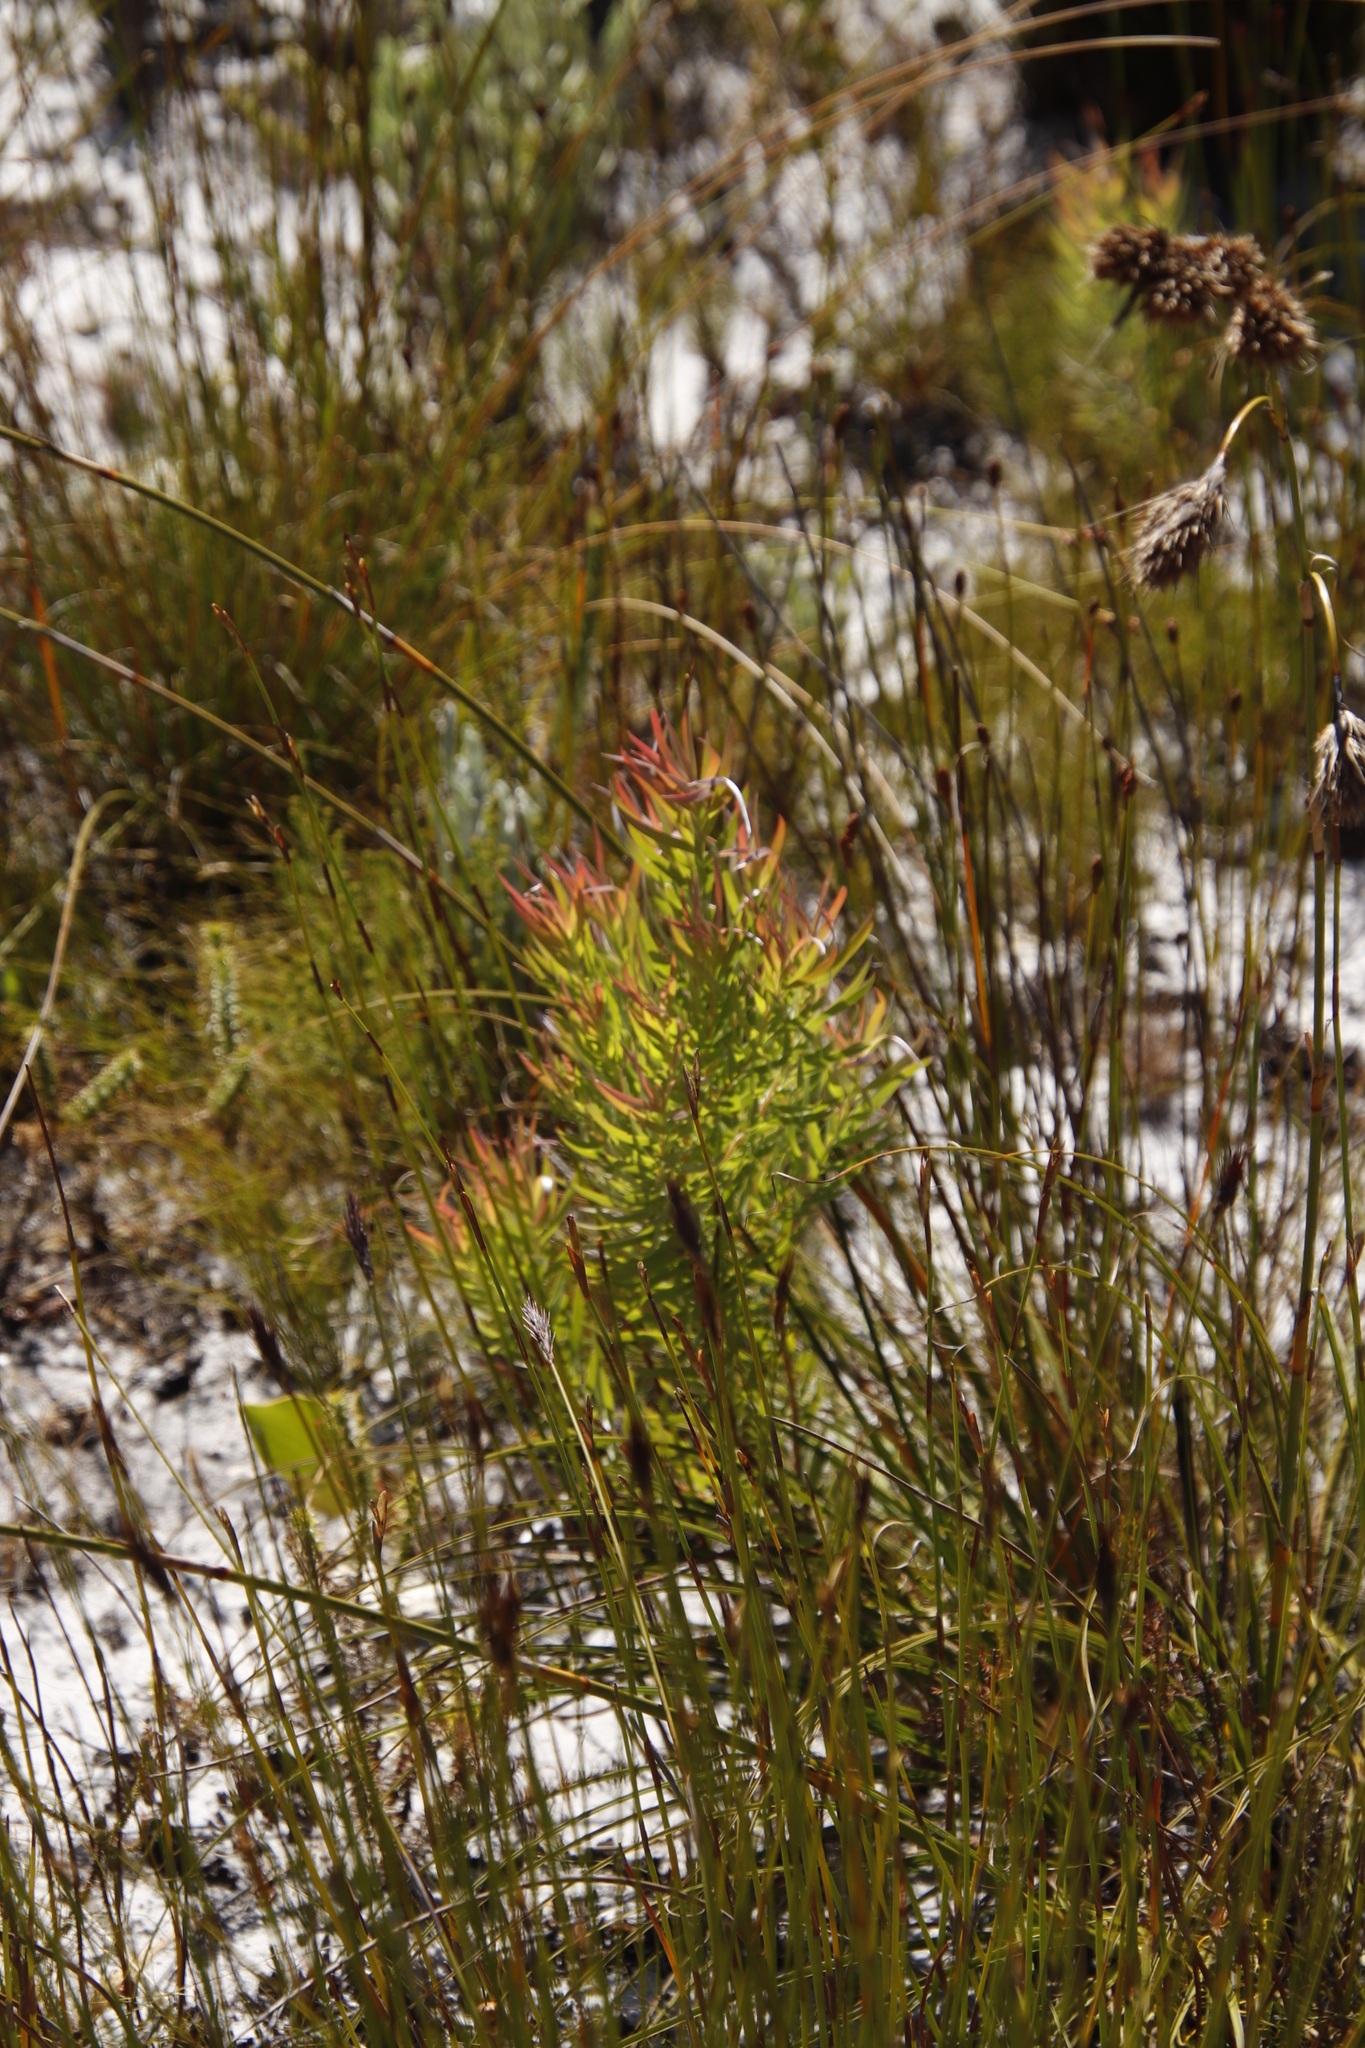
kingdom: Plantae
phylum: Tracheophyta
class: Magnoliopsida
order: Proteales
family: Proteaceae
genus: Leucadendron
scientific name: Leucadendron xanthoconus
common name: Sickle-leaf conebush
